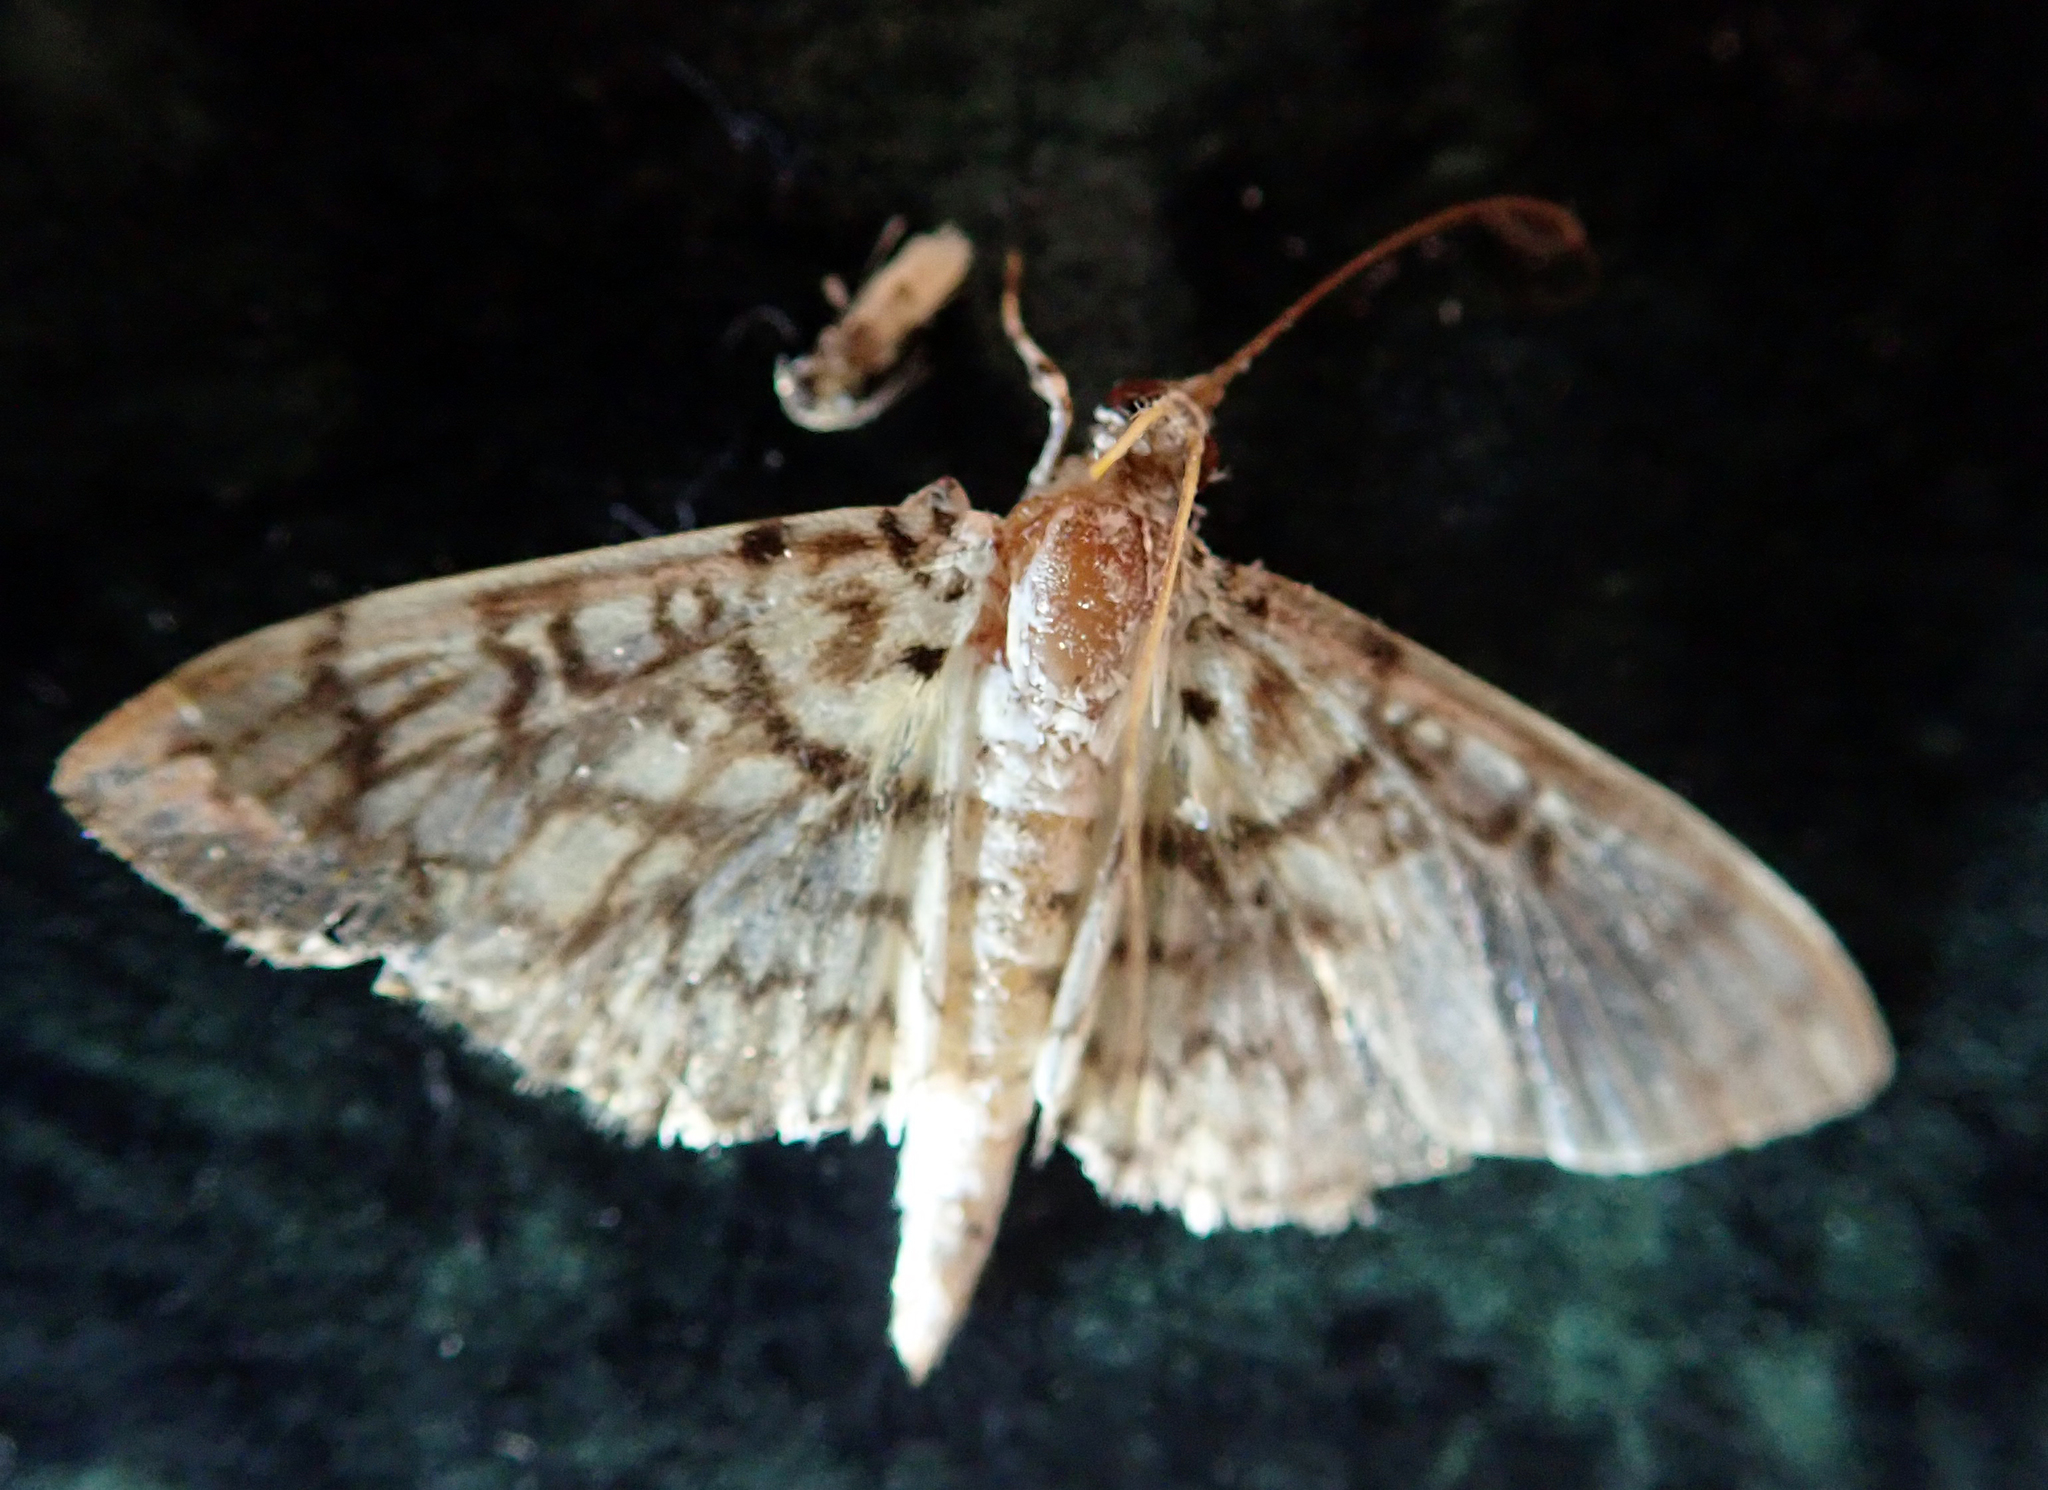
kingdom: Animalia
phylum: Arthropoda
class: Insecta
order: Lepidoptera
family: Crambidae
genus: Haritalodes
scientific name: Haritalodes derogata
